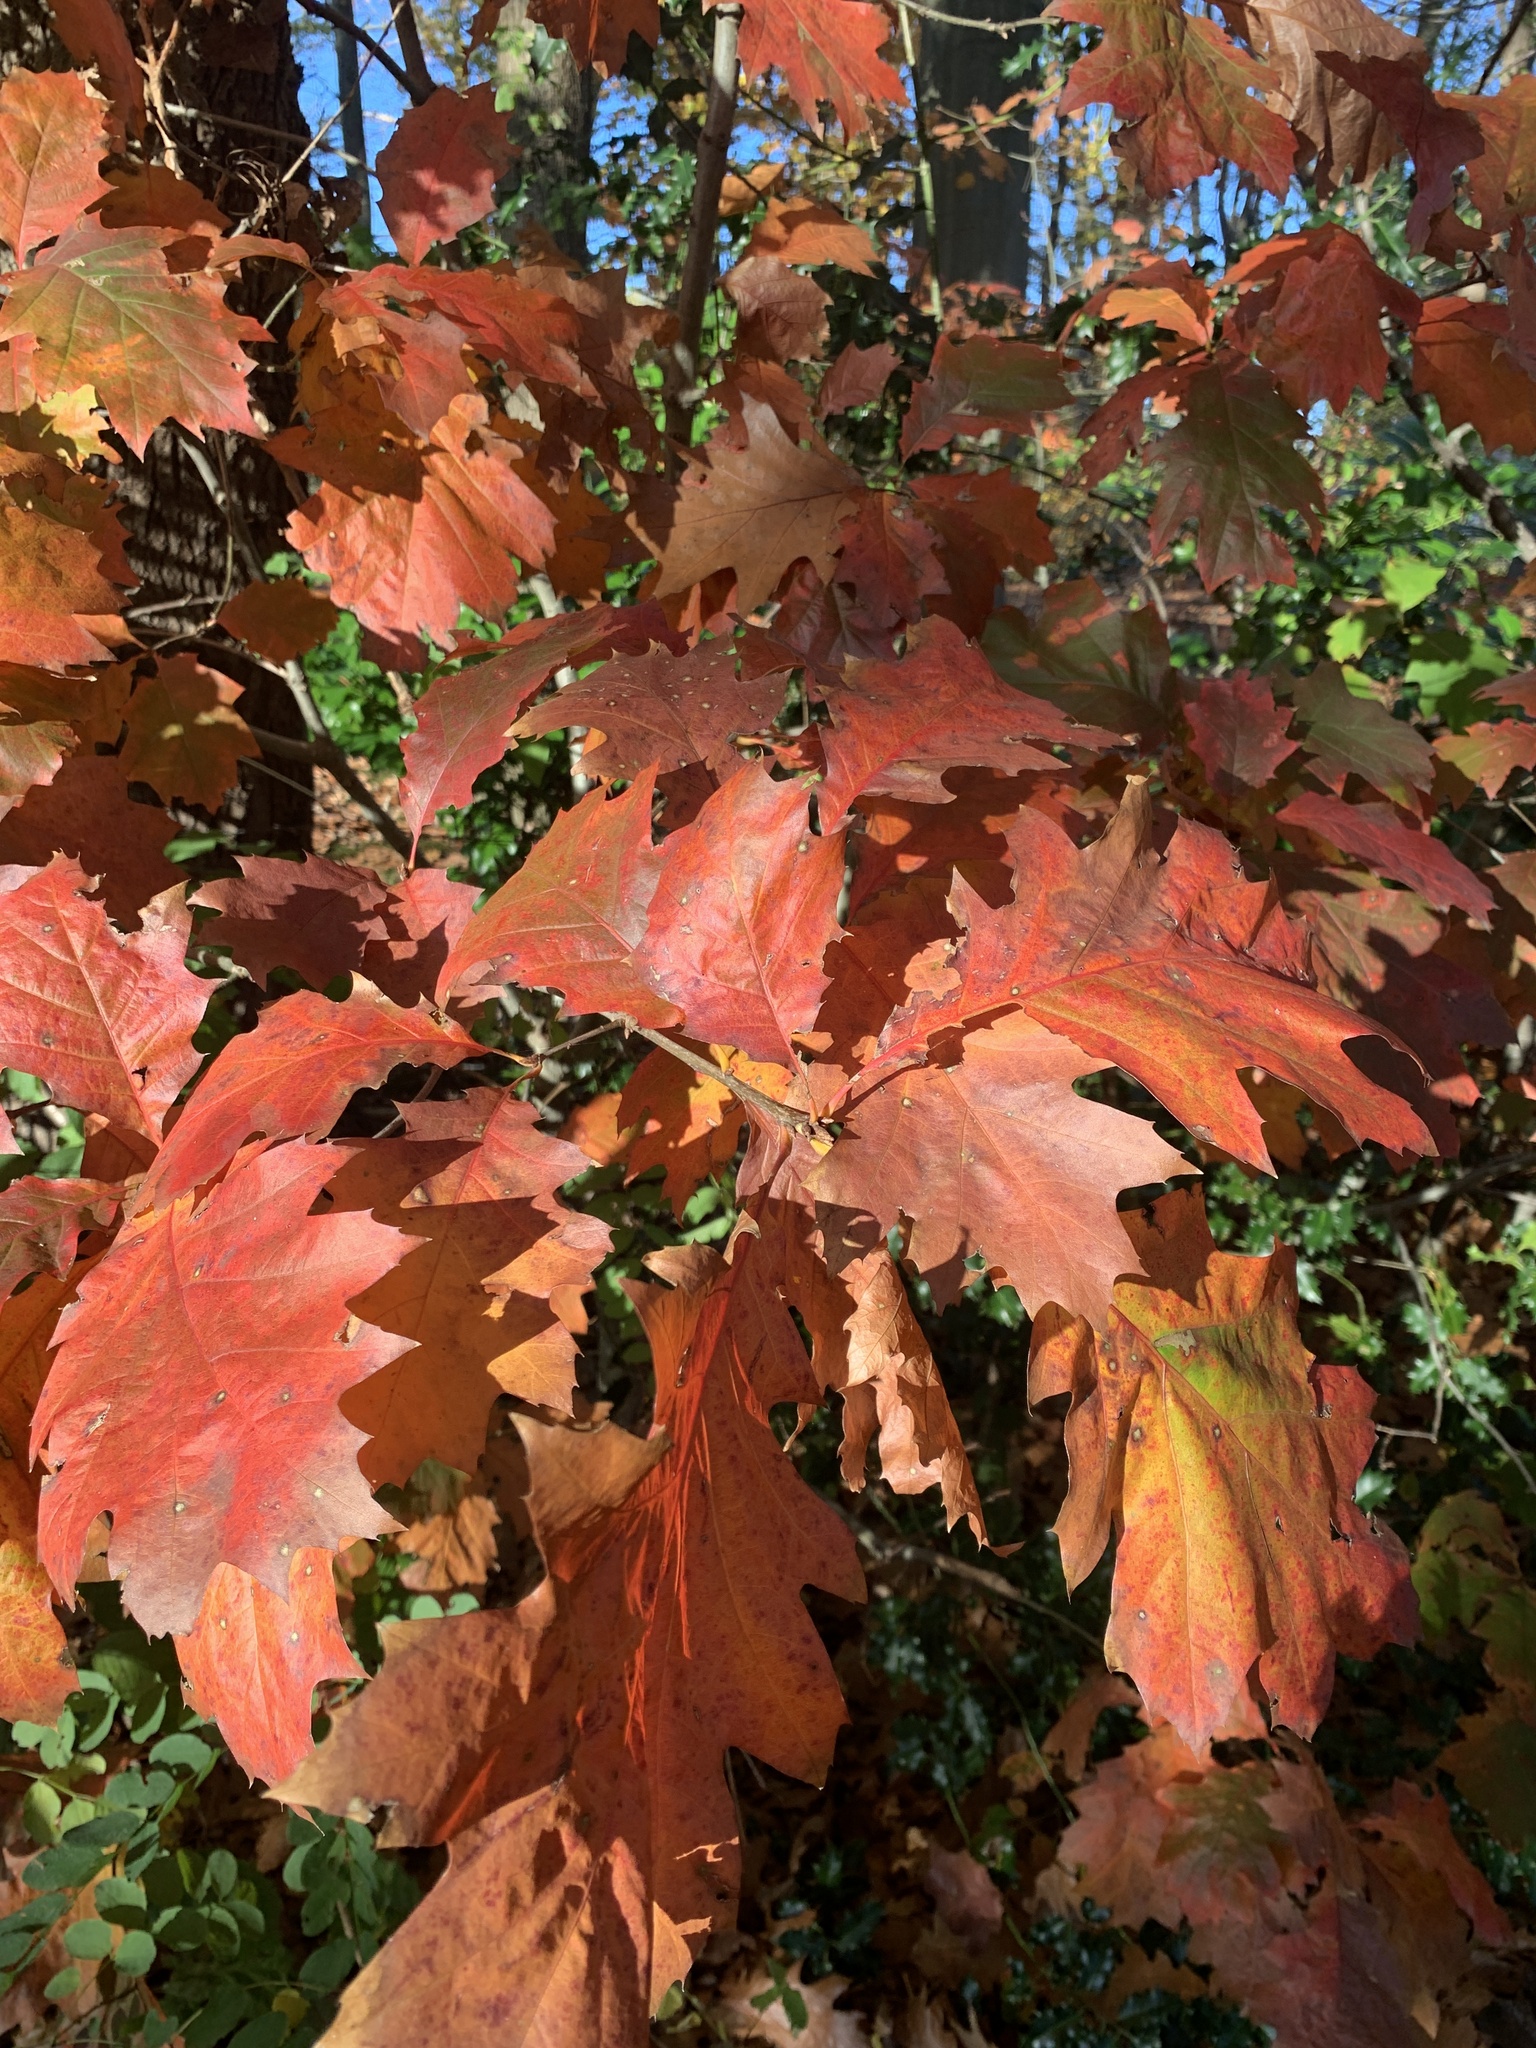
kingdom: Plantae
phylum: Tracheophyta
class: Magnoliopsida
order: Fagales
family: Fagaceae
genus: Quercus
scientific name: Quercus rubra
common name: Red oak
